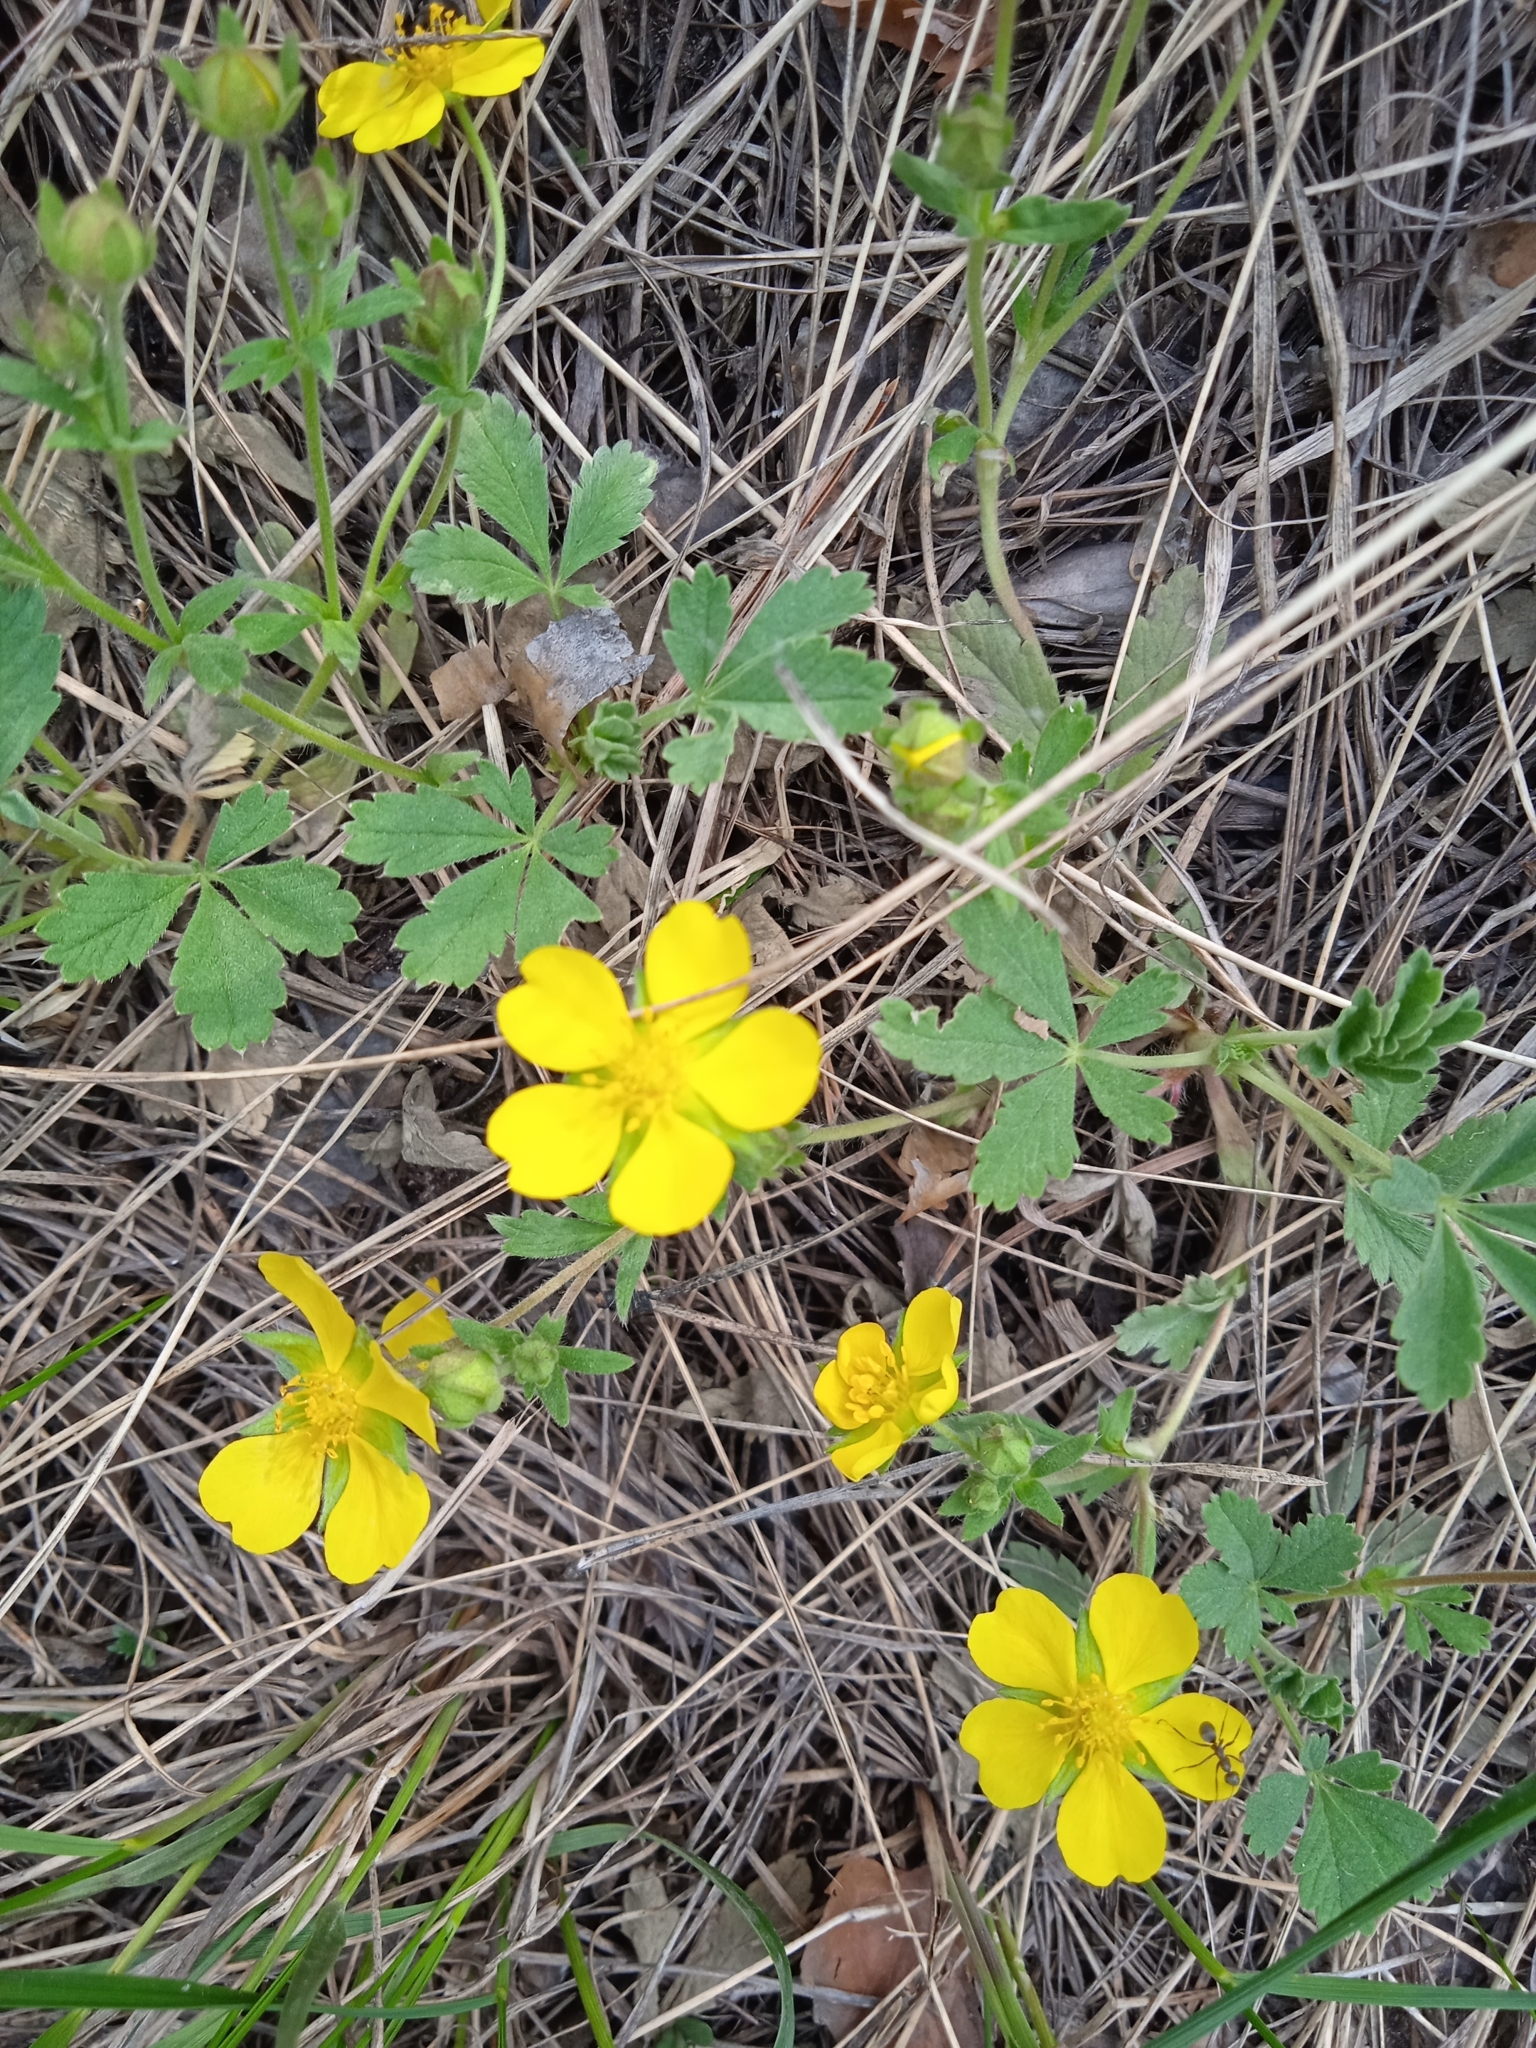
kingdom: Plantae
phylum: Tracheophyta
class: Magnoliopsida
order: Rosales
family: Rosaceae
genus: Potentilla
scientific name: Potentilla incana
